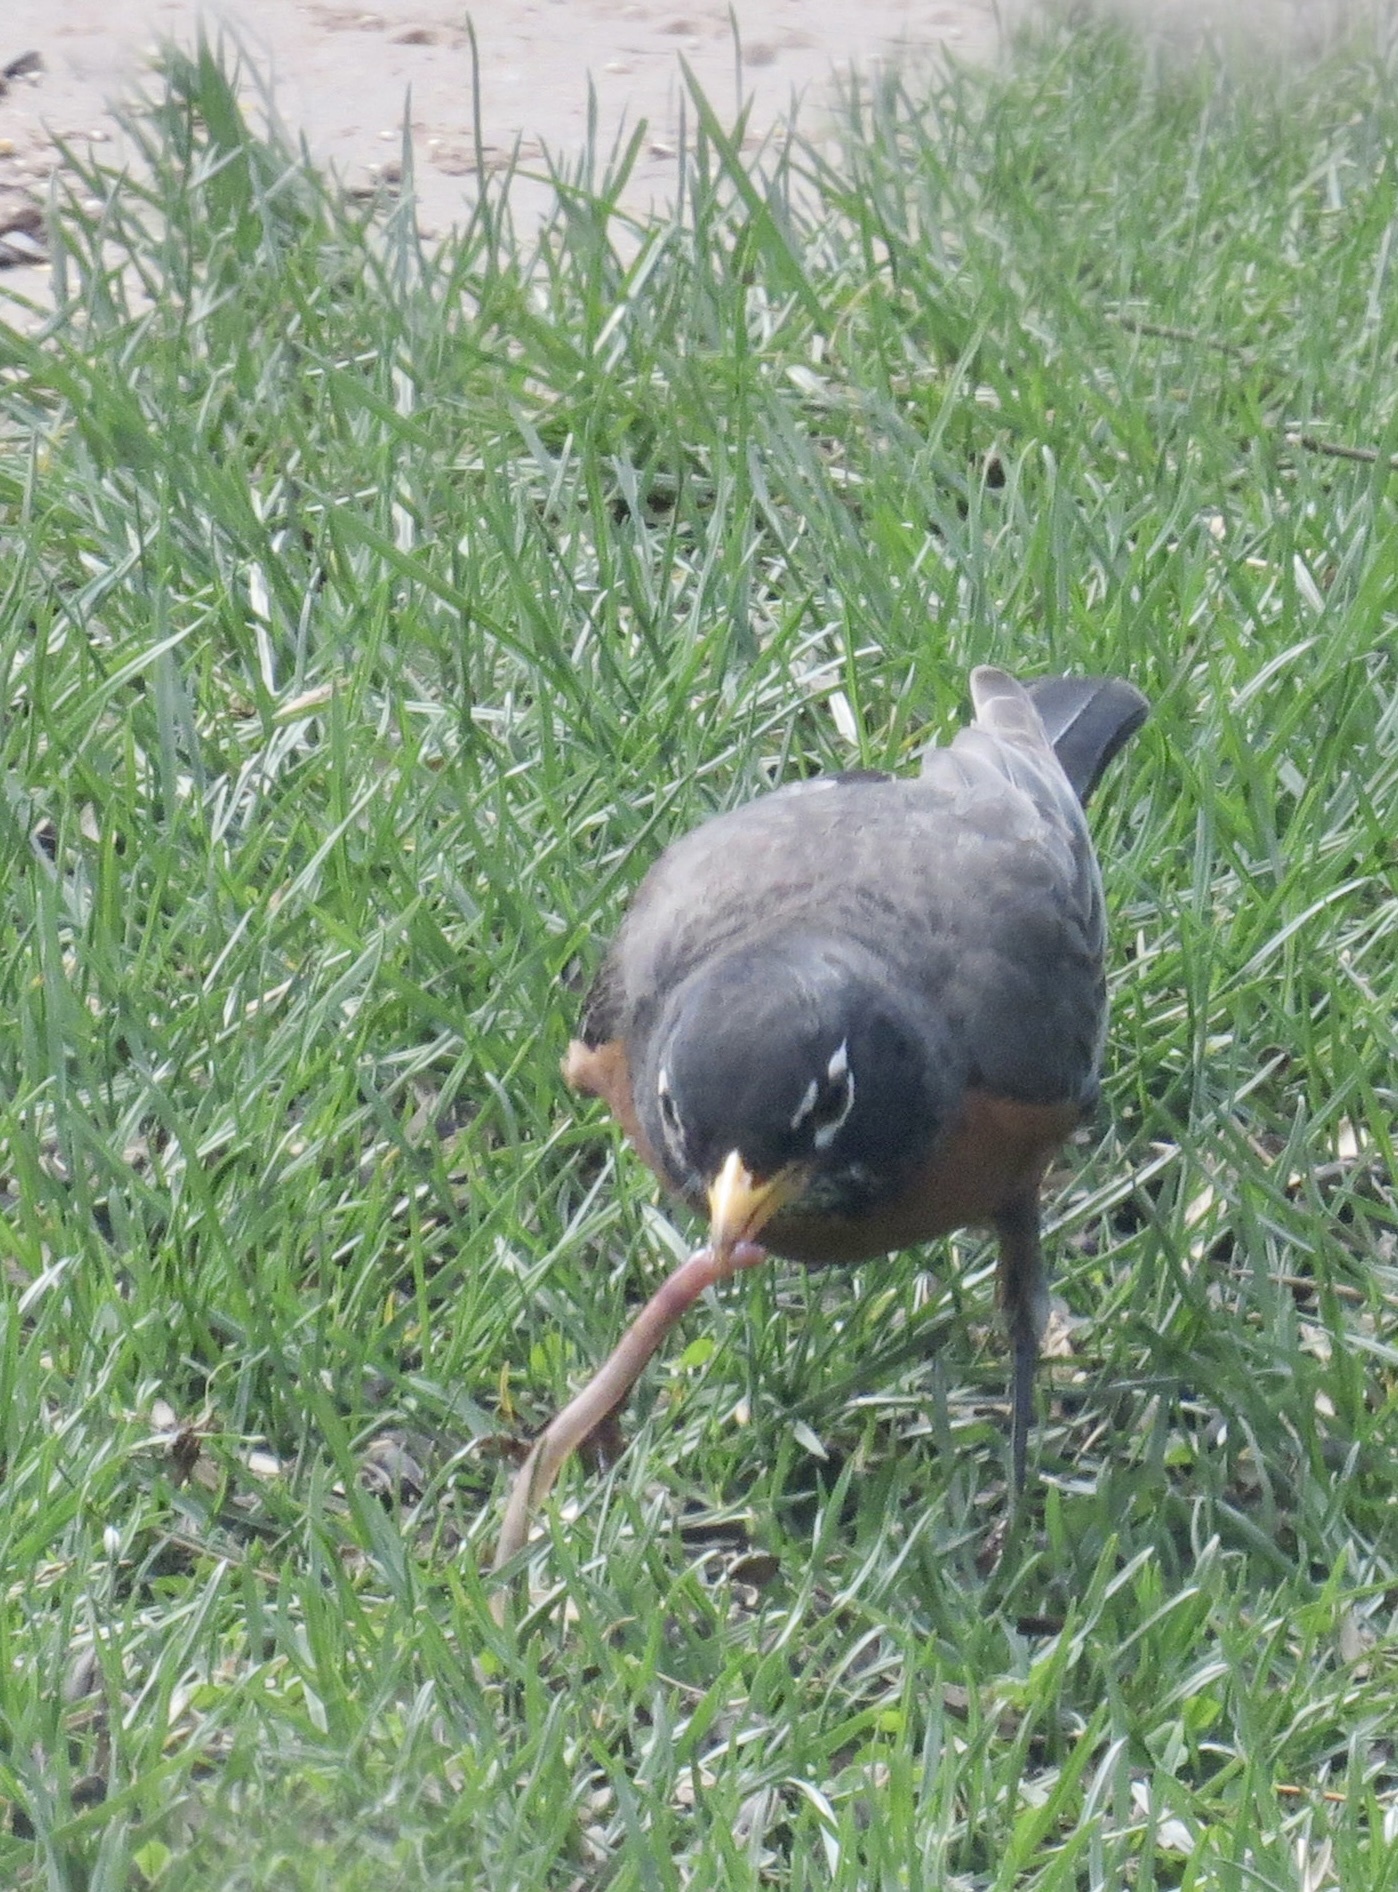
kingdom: Animalia
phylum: Chordata
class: Aves
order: Passeriformes
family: Turdidae
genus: Turdus
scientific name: Turdus migratorius
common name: American robin
